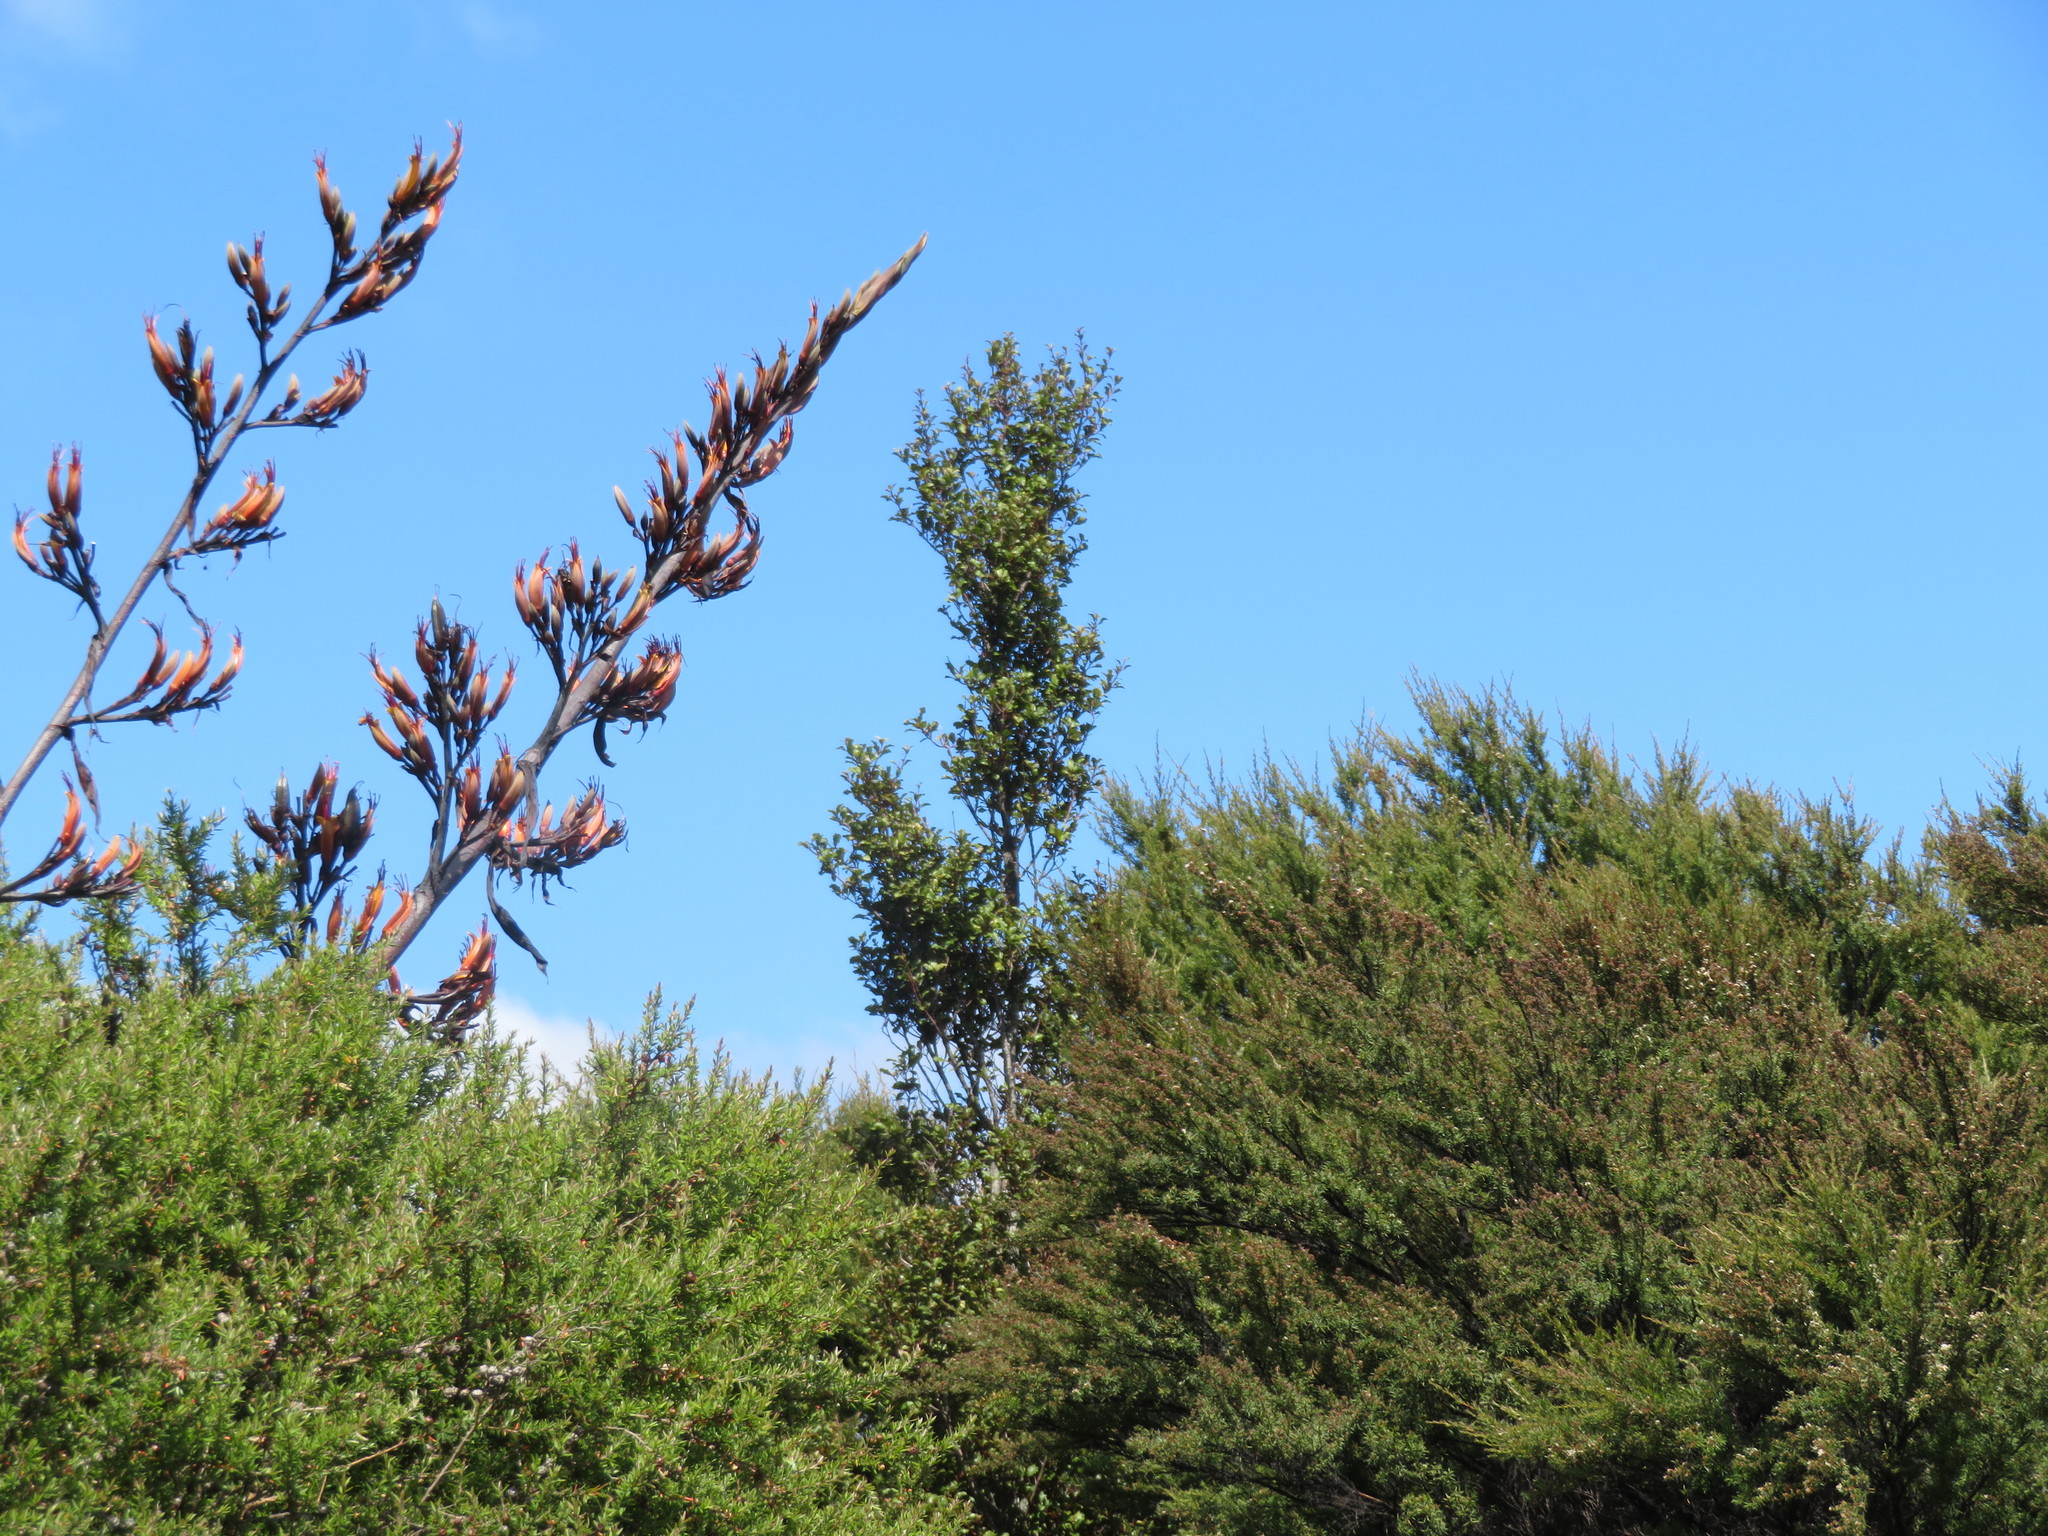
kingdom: Plantae
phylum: Tracheophyta
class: Magnoliopsida
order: Myrtales
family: Myrtaceae
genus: Leptospermum
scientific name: Leptospermum scoparium
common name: Broom tea-tree
